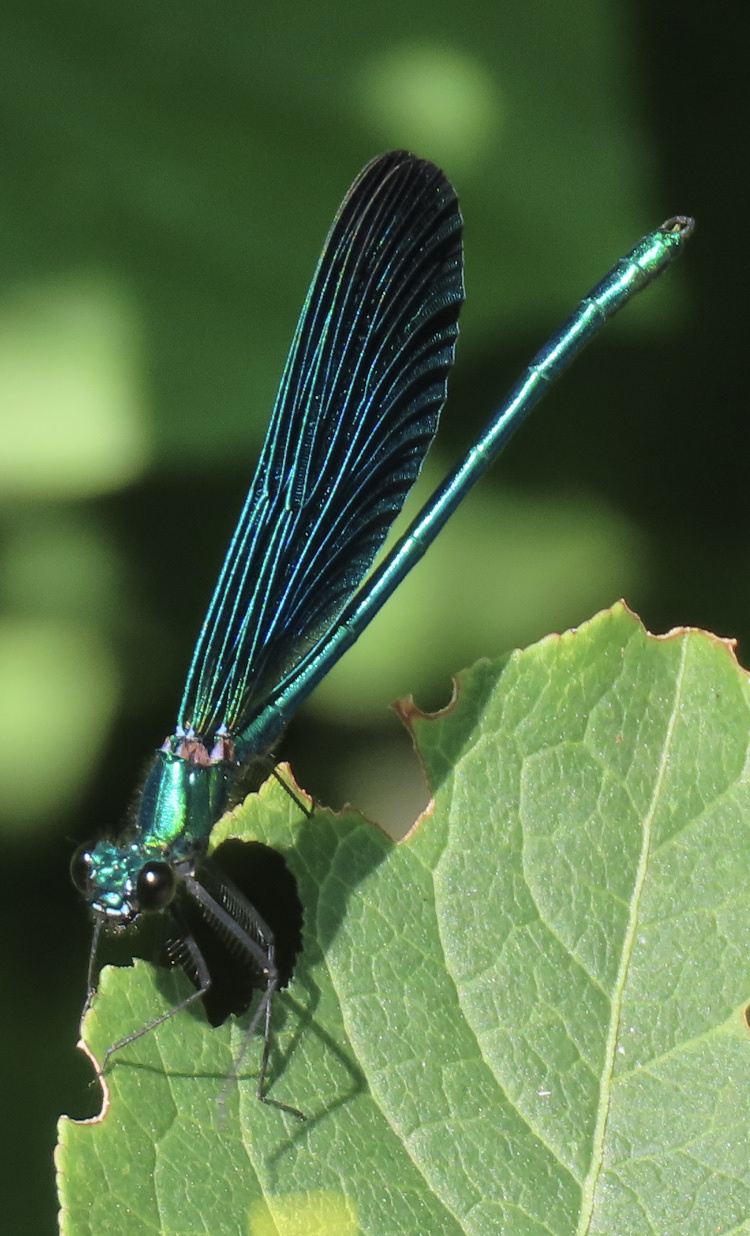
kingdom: Animalia
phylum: Arthropoda
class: Insecta
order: Odonata
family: Calopterygidae
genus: Calopteryx
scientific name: Calopteryx virgo
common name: Beautiful demoiselle
